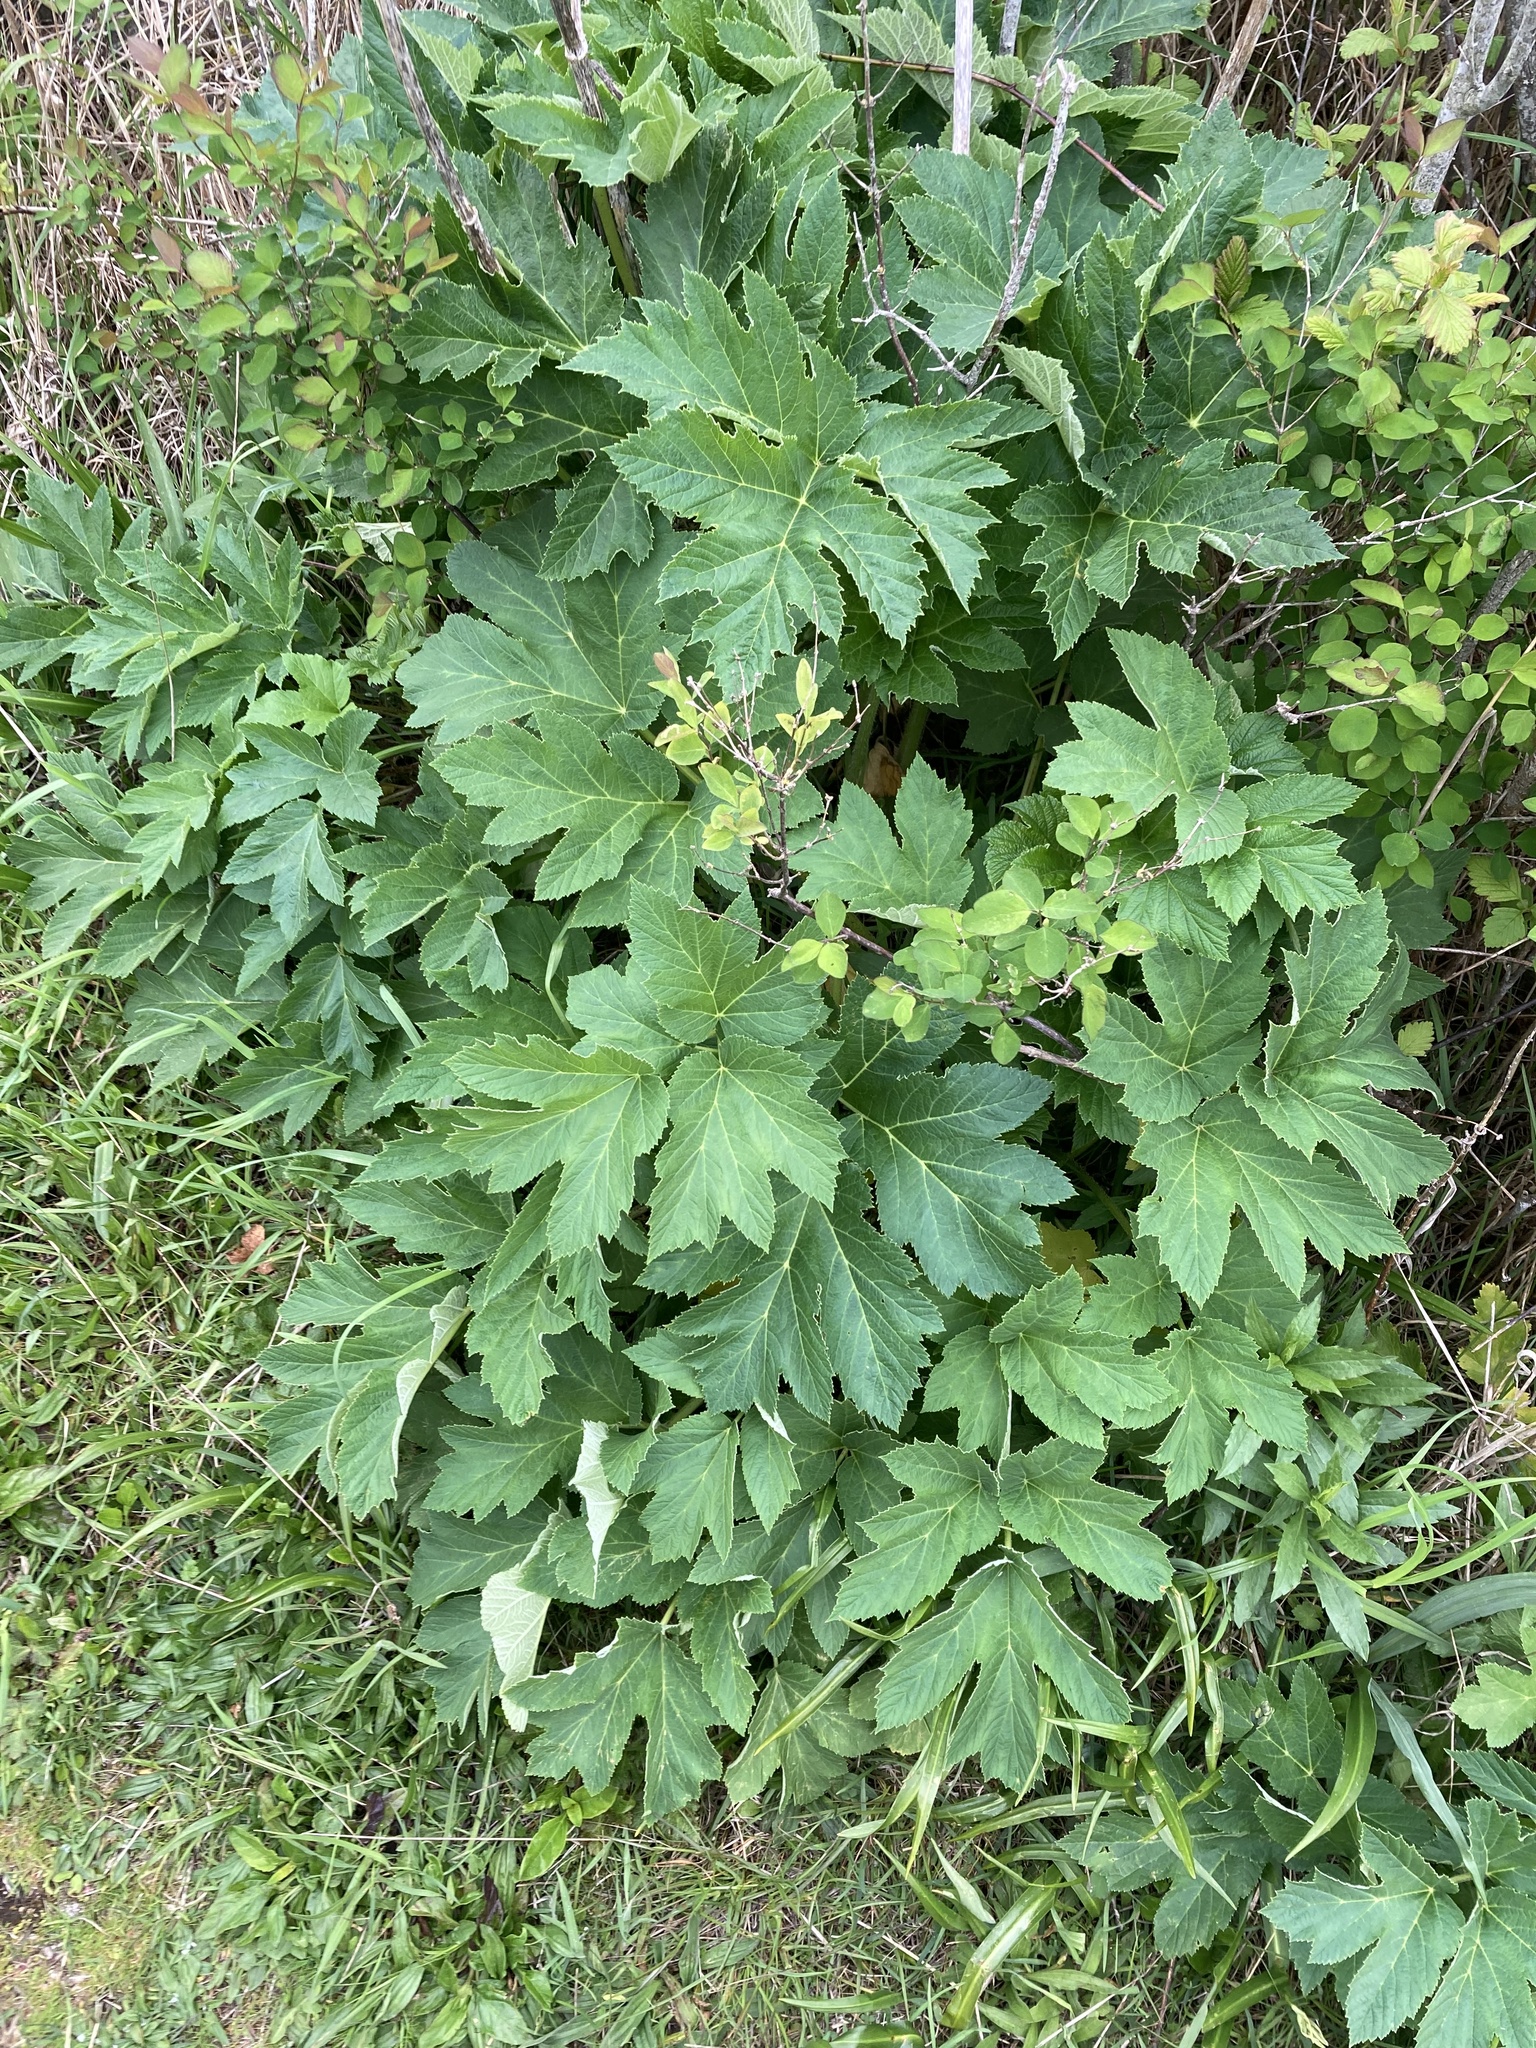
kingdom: Plantae
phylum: Tracheophyta
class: Magnoliopsida
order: Apiales
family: Apiaceae
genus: Heracleum
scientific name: Heracleum maximum
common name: American cow parsnip
